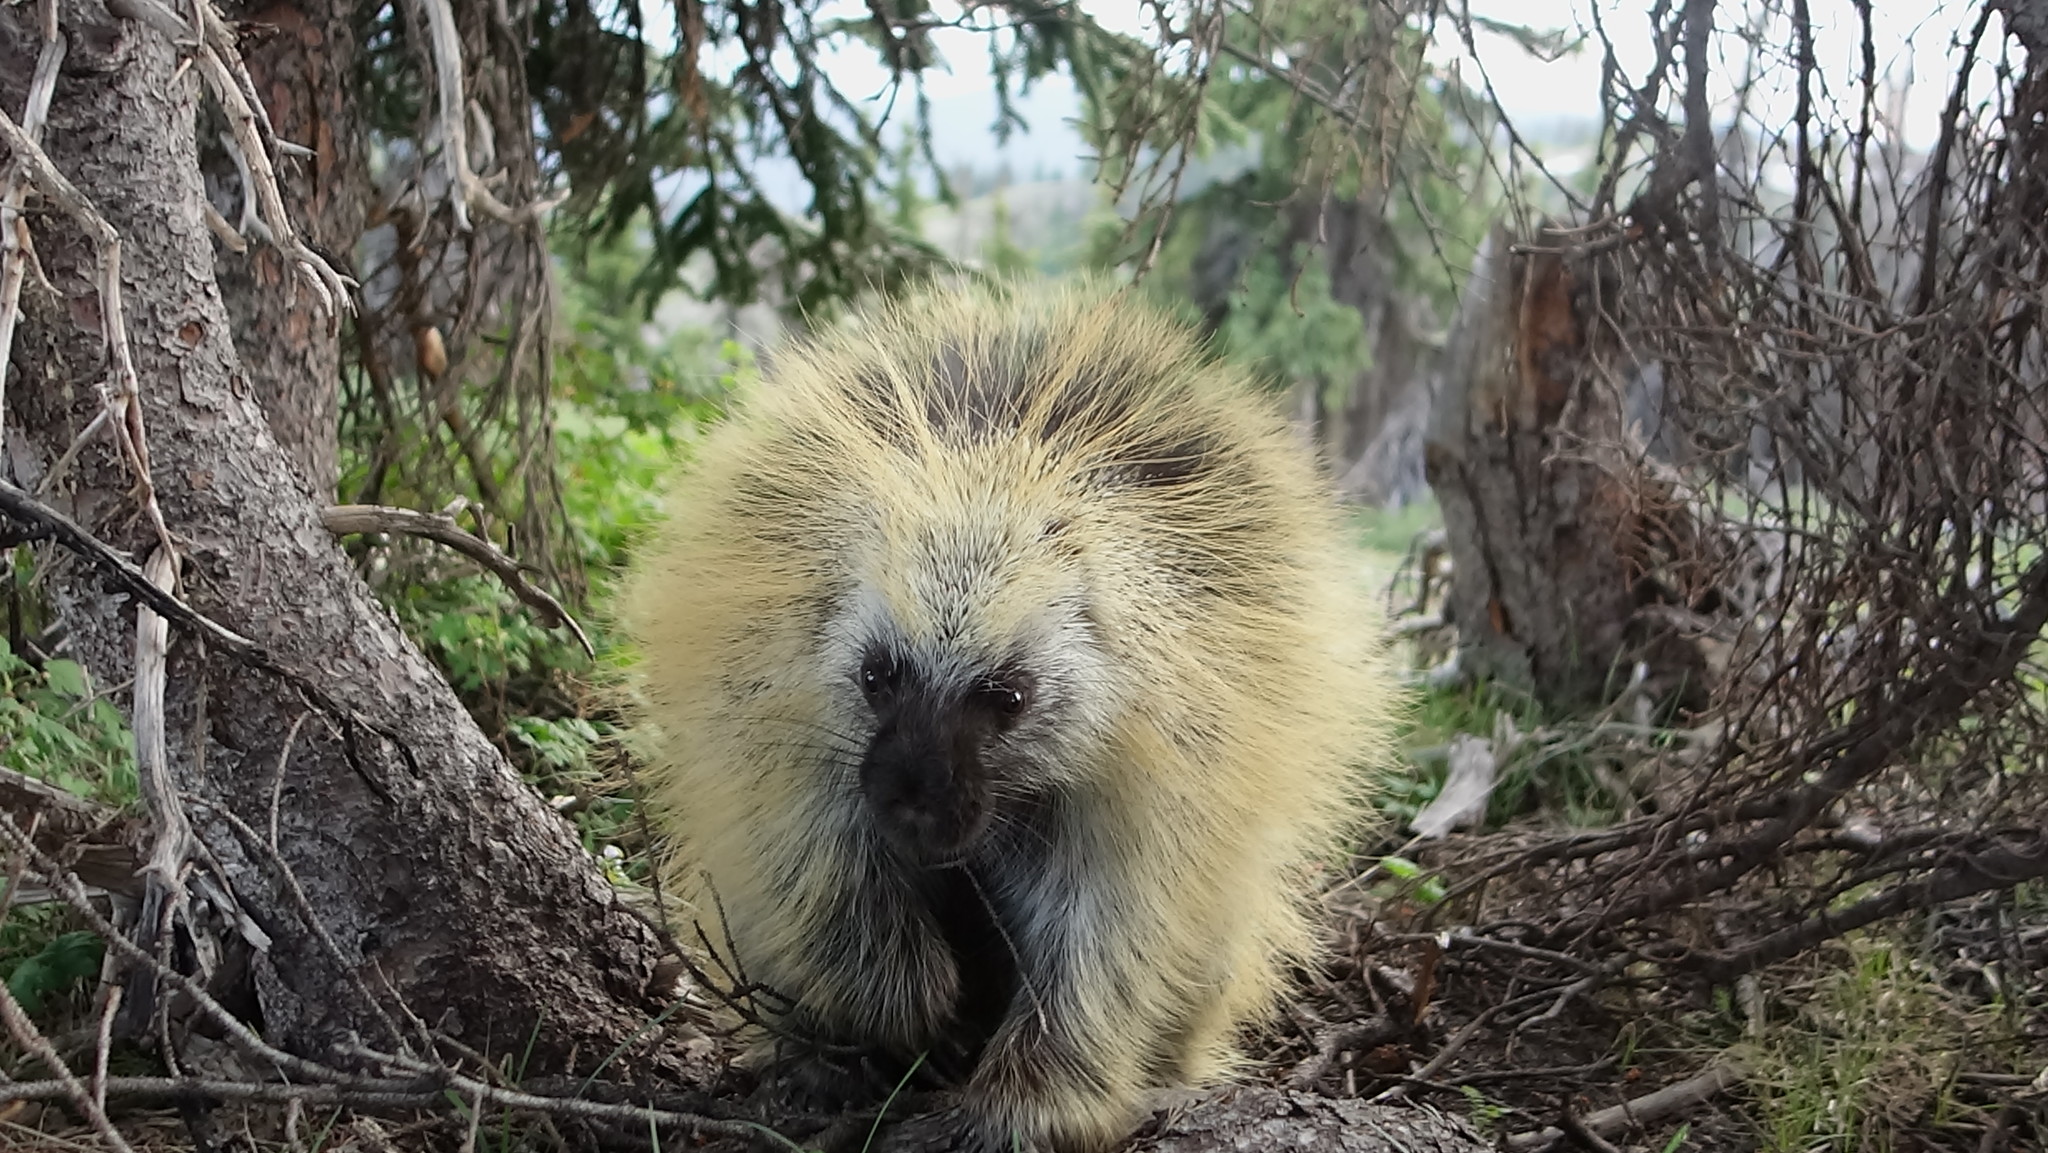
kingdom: Animalia
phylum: Chordata
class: Mammalia
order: Rodentia
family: Erethizontidae
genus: Erethizon
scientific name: Erethizon dorsatus
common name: North american porcupine
